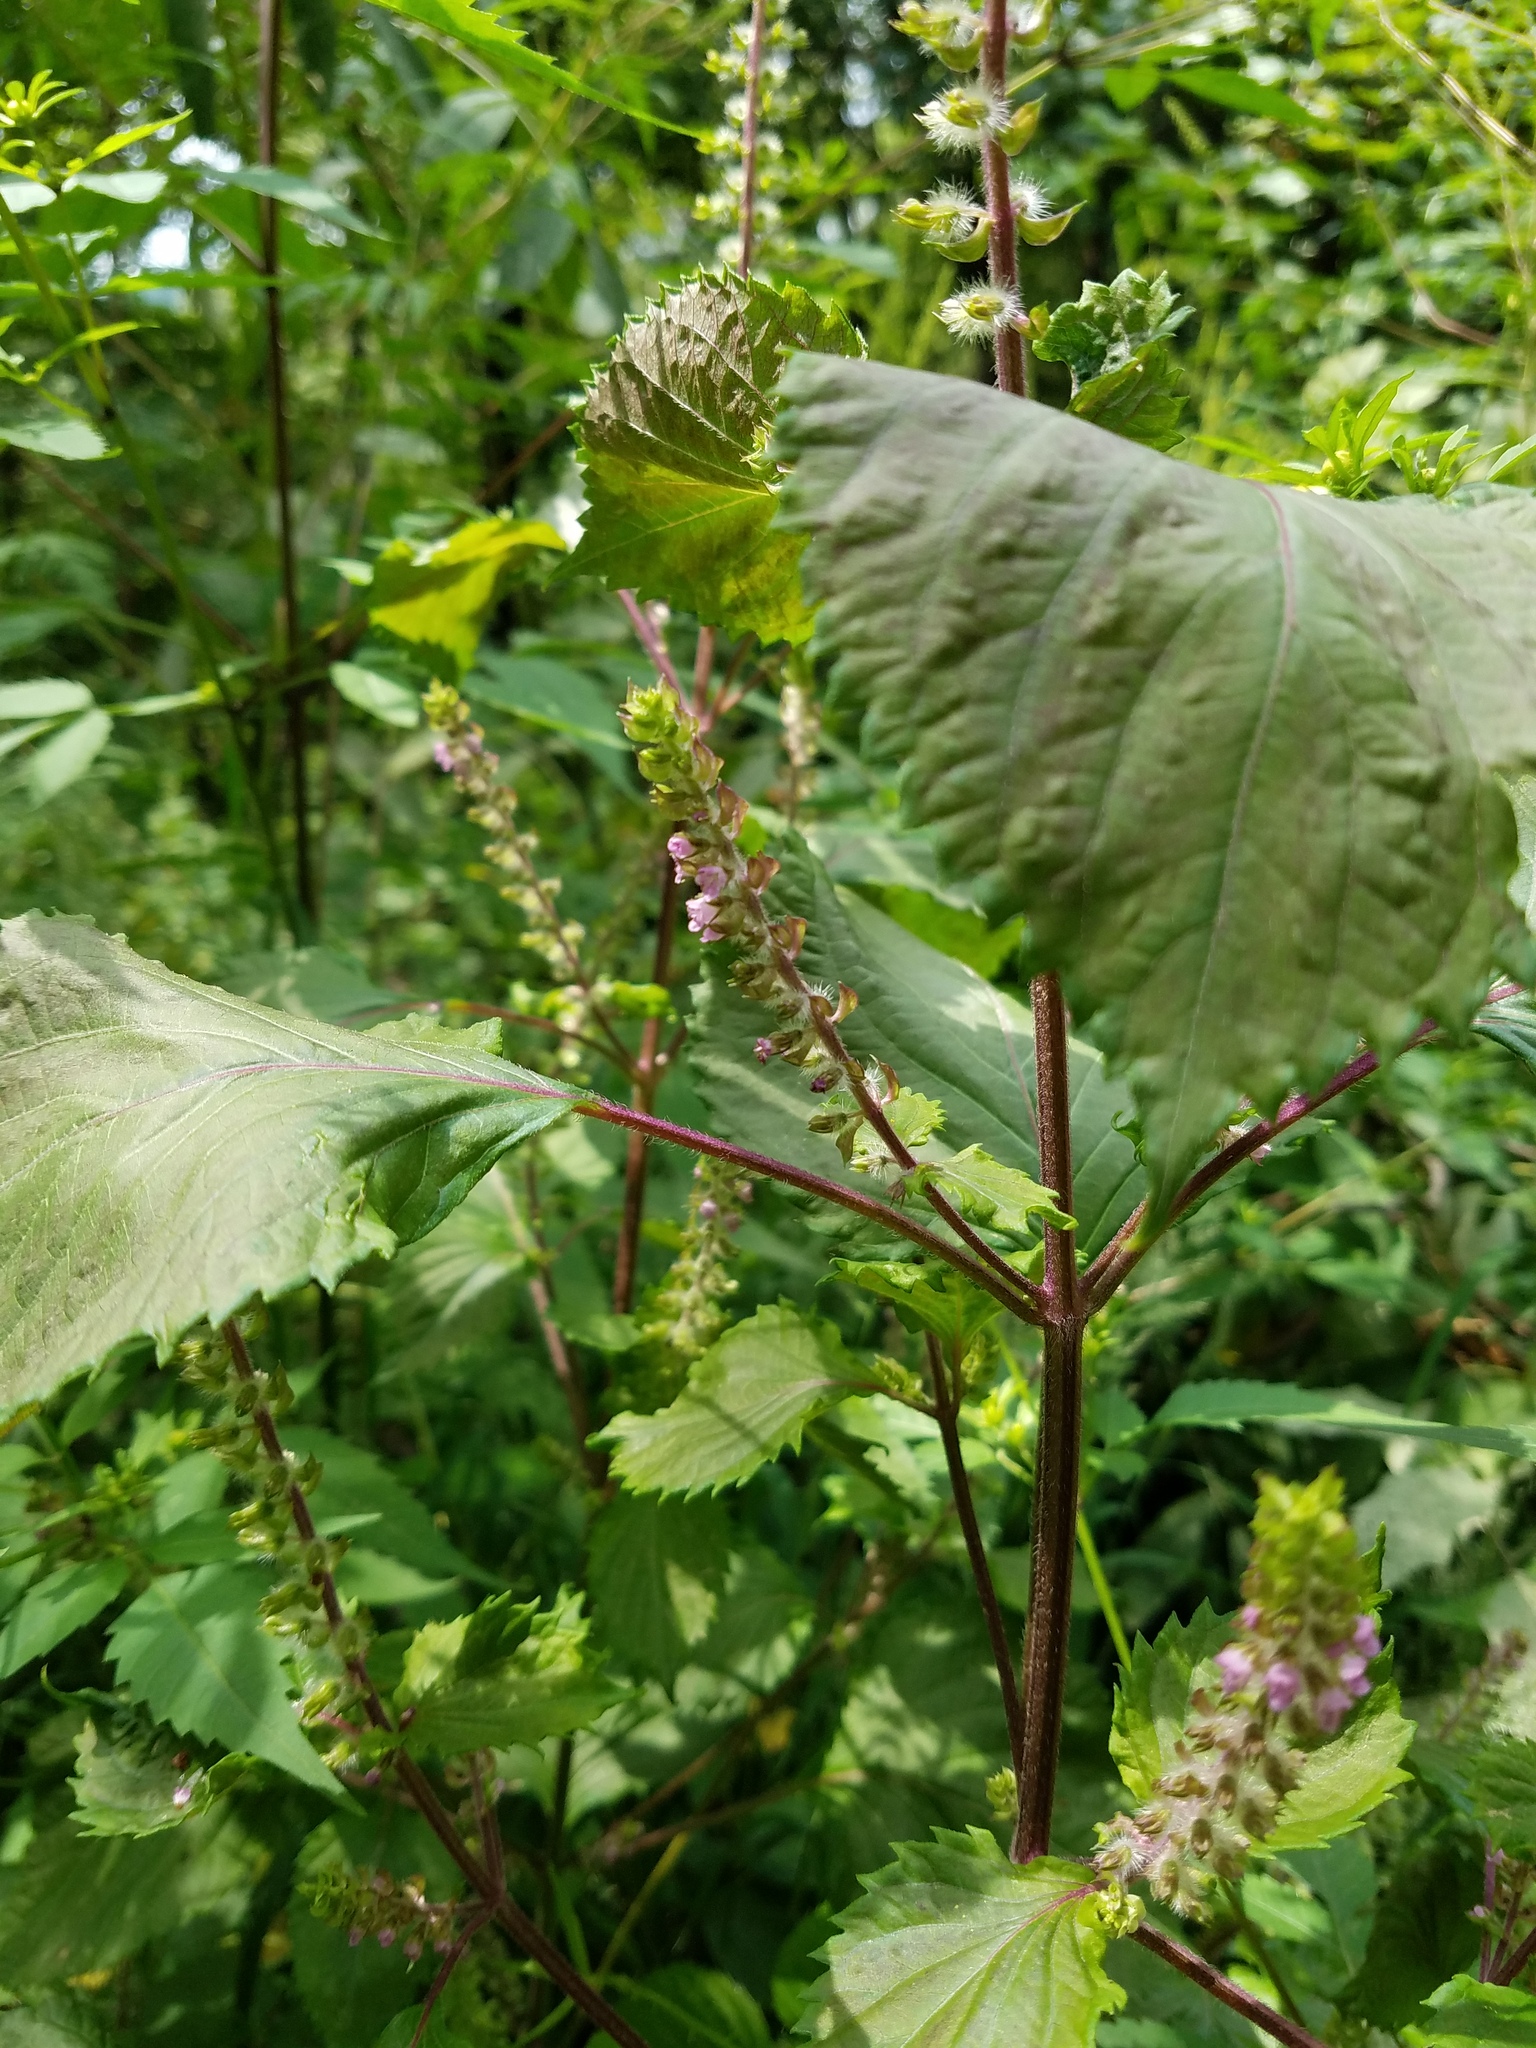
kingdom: Plantae
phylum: Tracheophyta
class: Magnoliopsida
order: Lamiales
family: Lamiaceae
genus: Perilla
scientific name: Perilla frutescens
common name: Perilla
